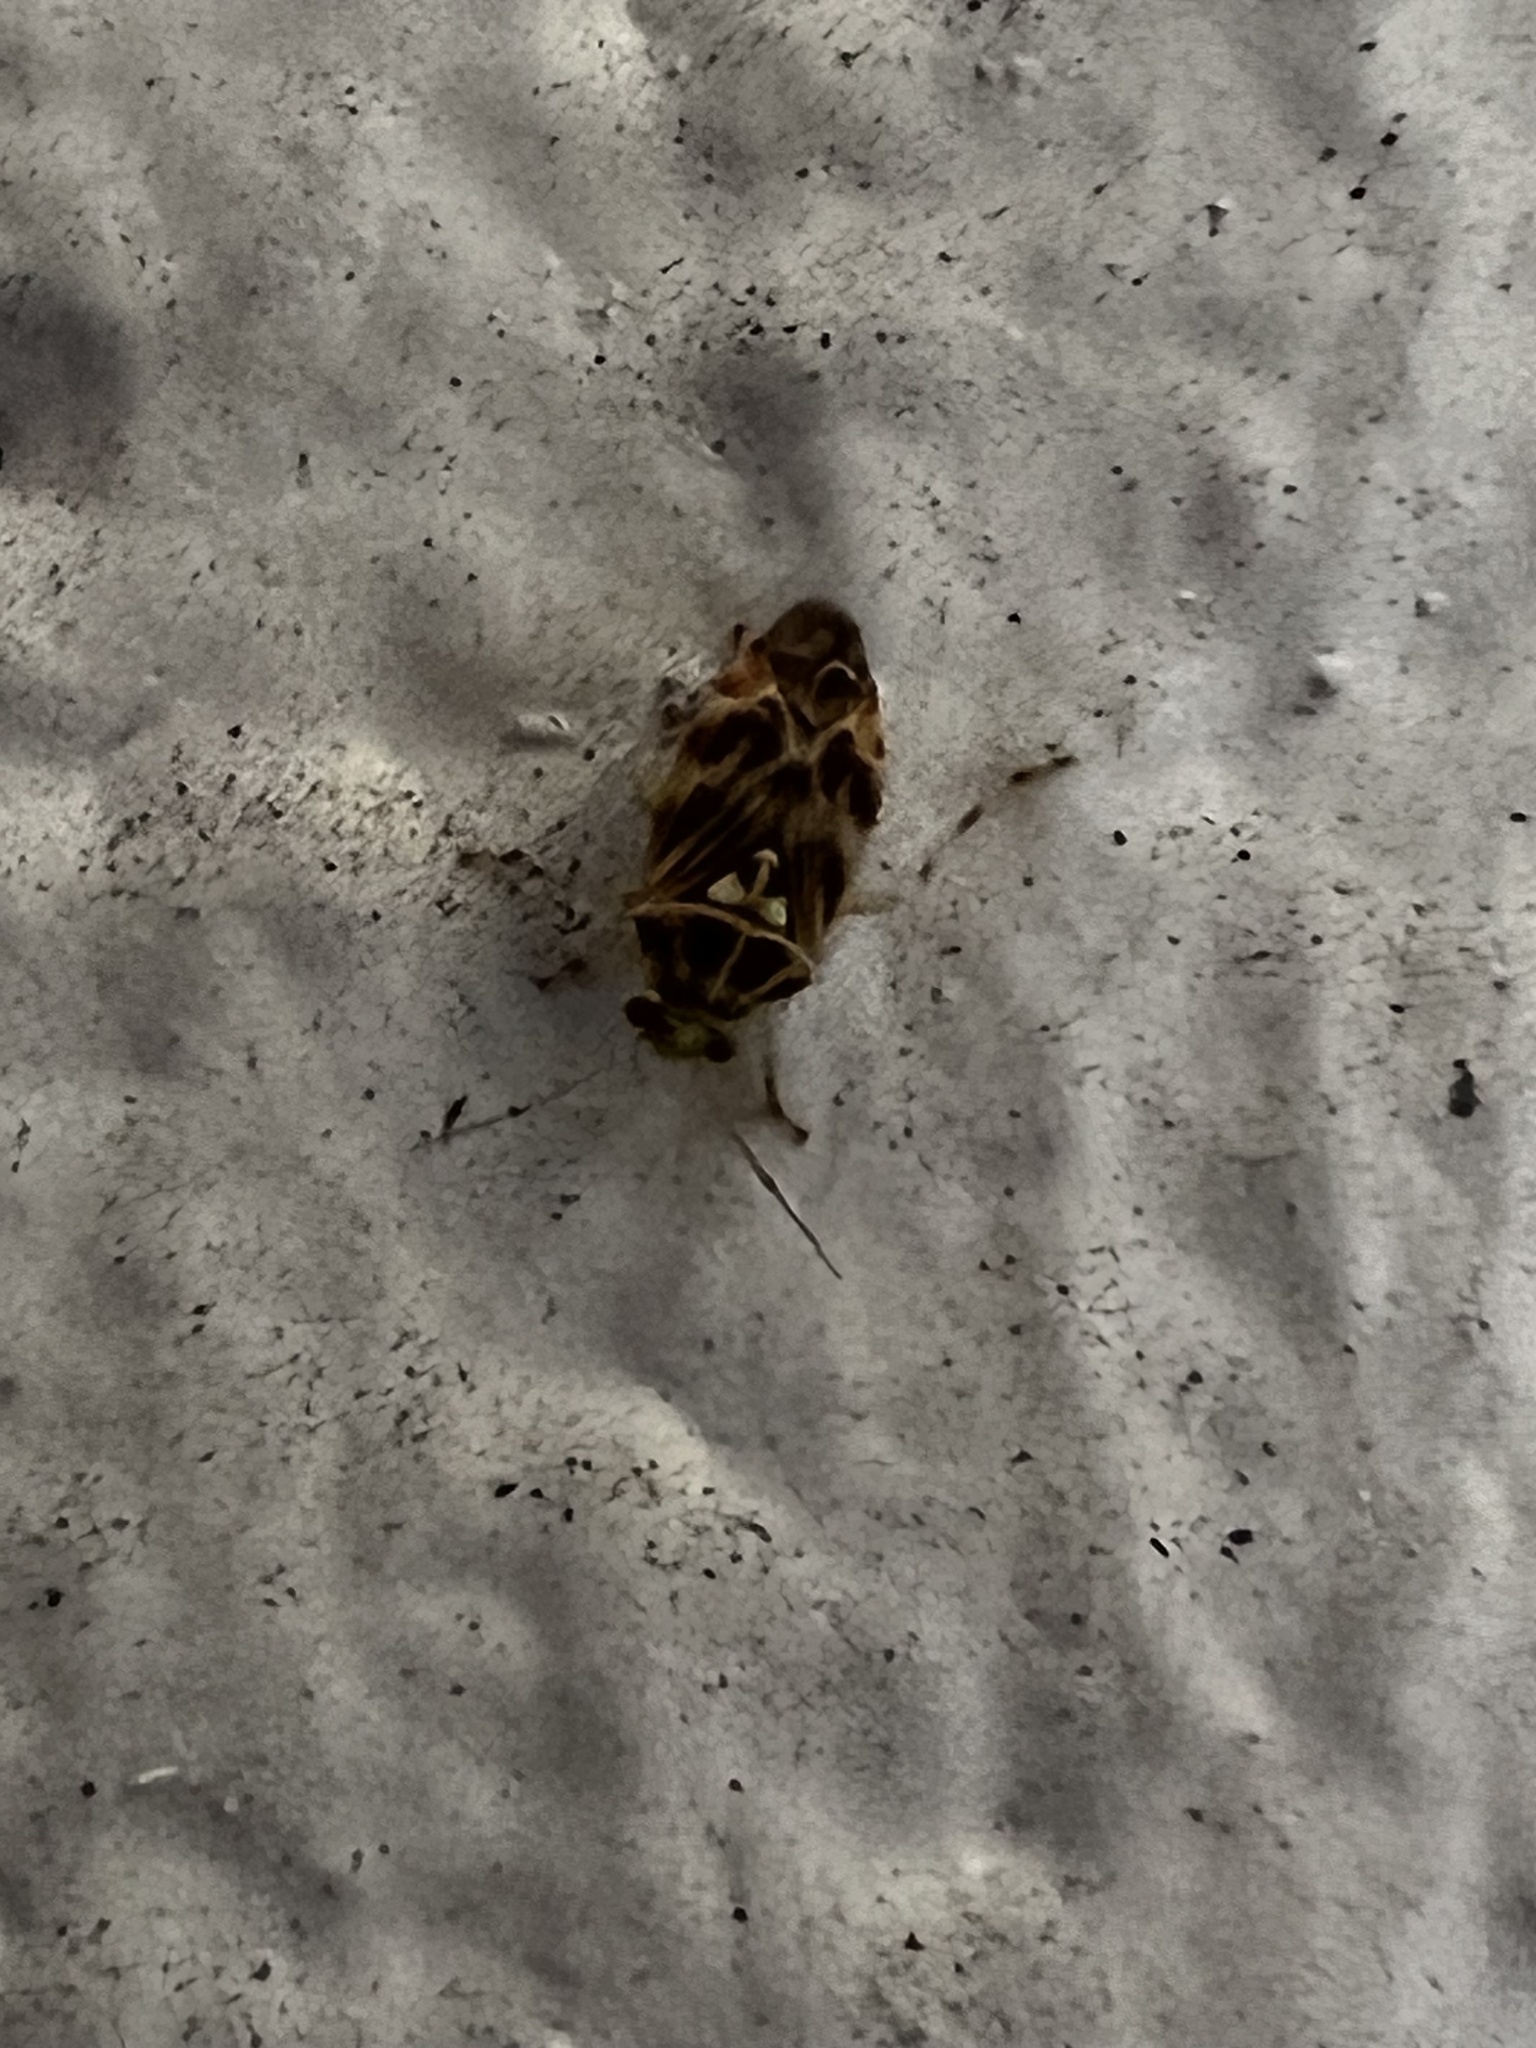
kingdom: Animalia
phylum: Arthropoda
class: Insecta
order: Hemiptera
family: Miridae
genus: Tropidosteptes
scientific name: Tropidosteptes quercicola
